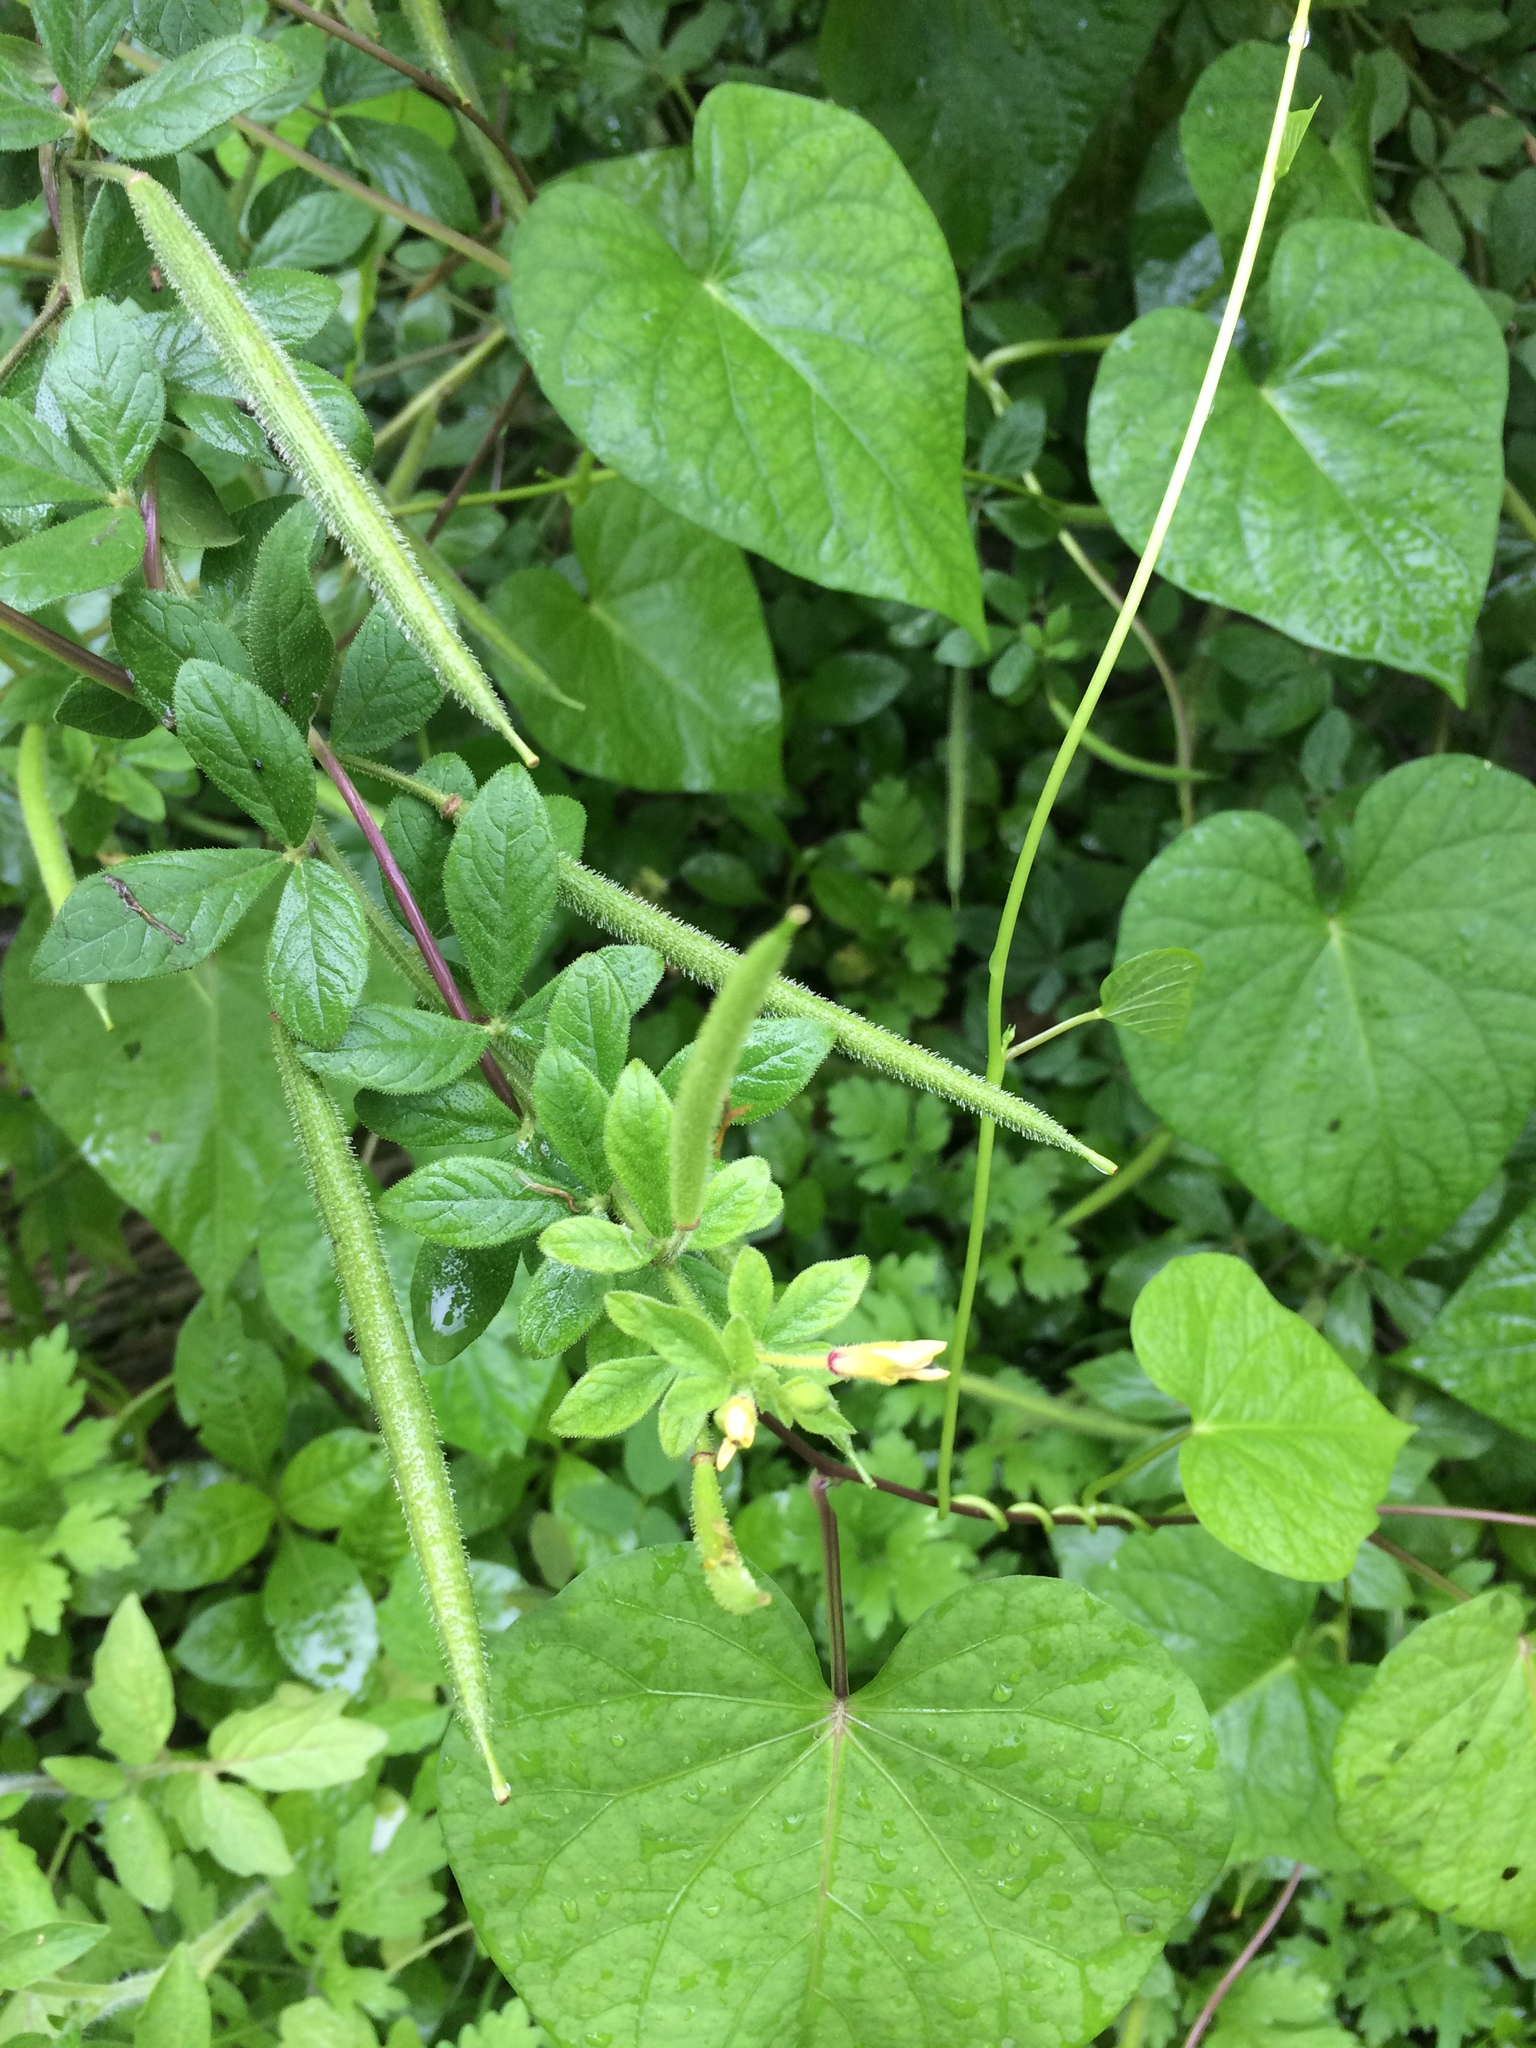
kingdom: Plantae
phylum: Tracheophyta
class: Magnoliopsida
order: Brassicales
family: Cleomaceae
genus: Arivela
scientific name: Arivela viscosa
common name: Asian spiderflower
